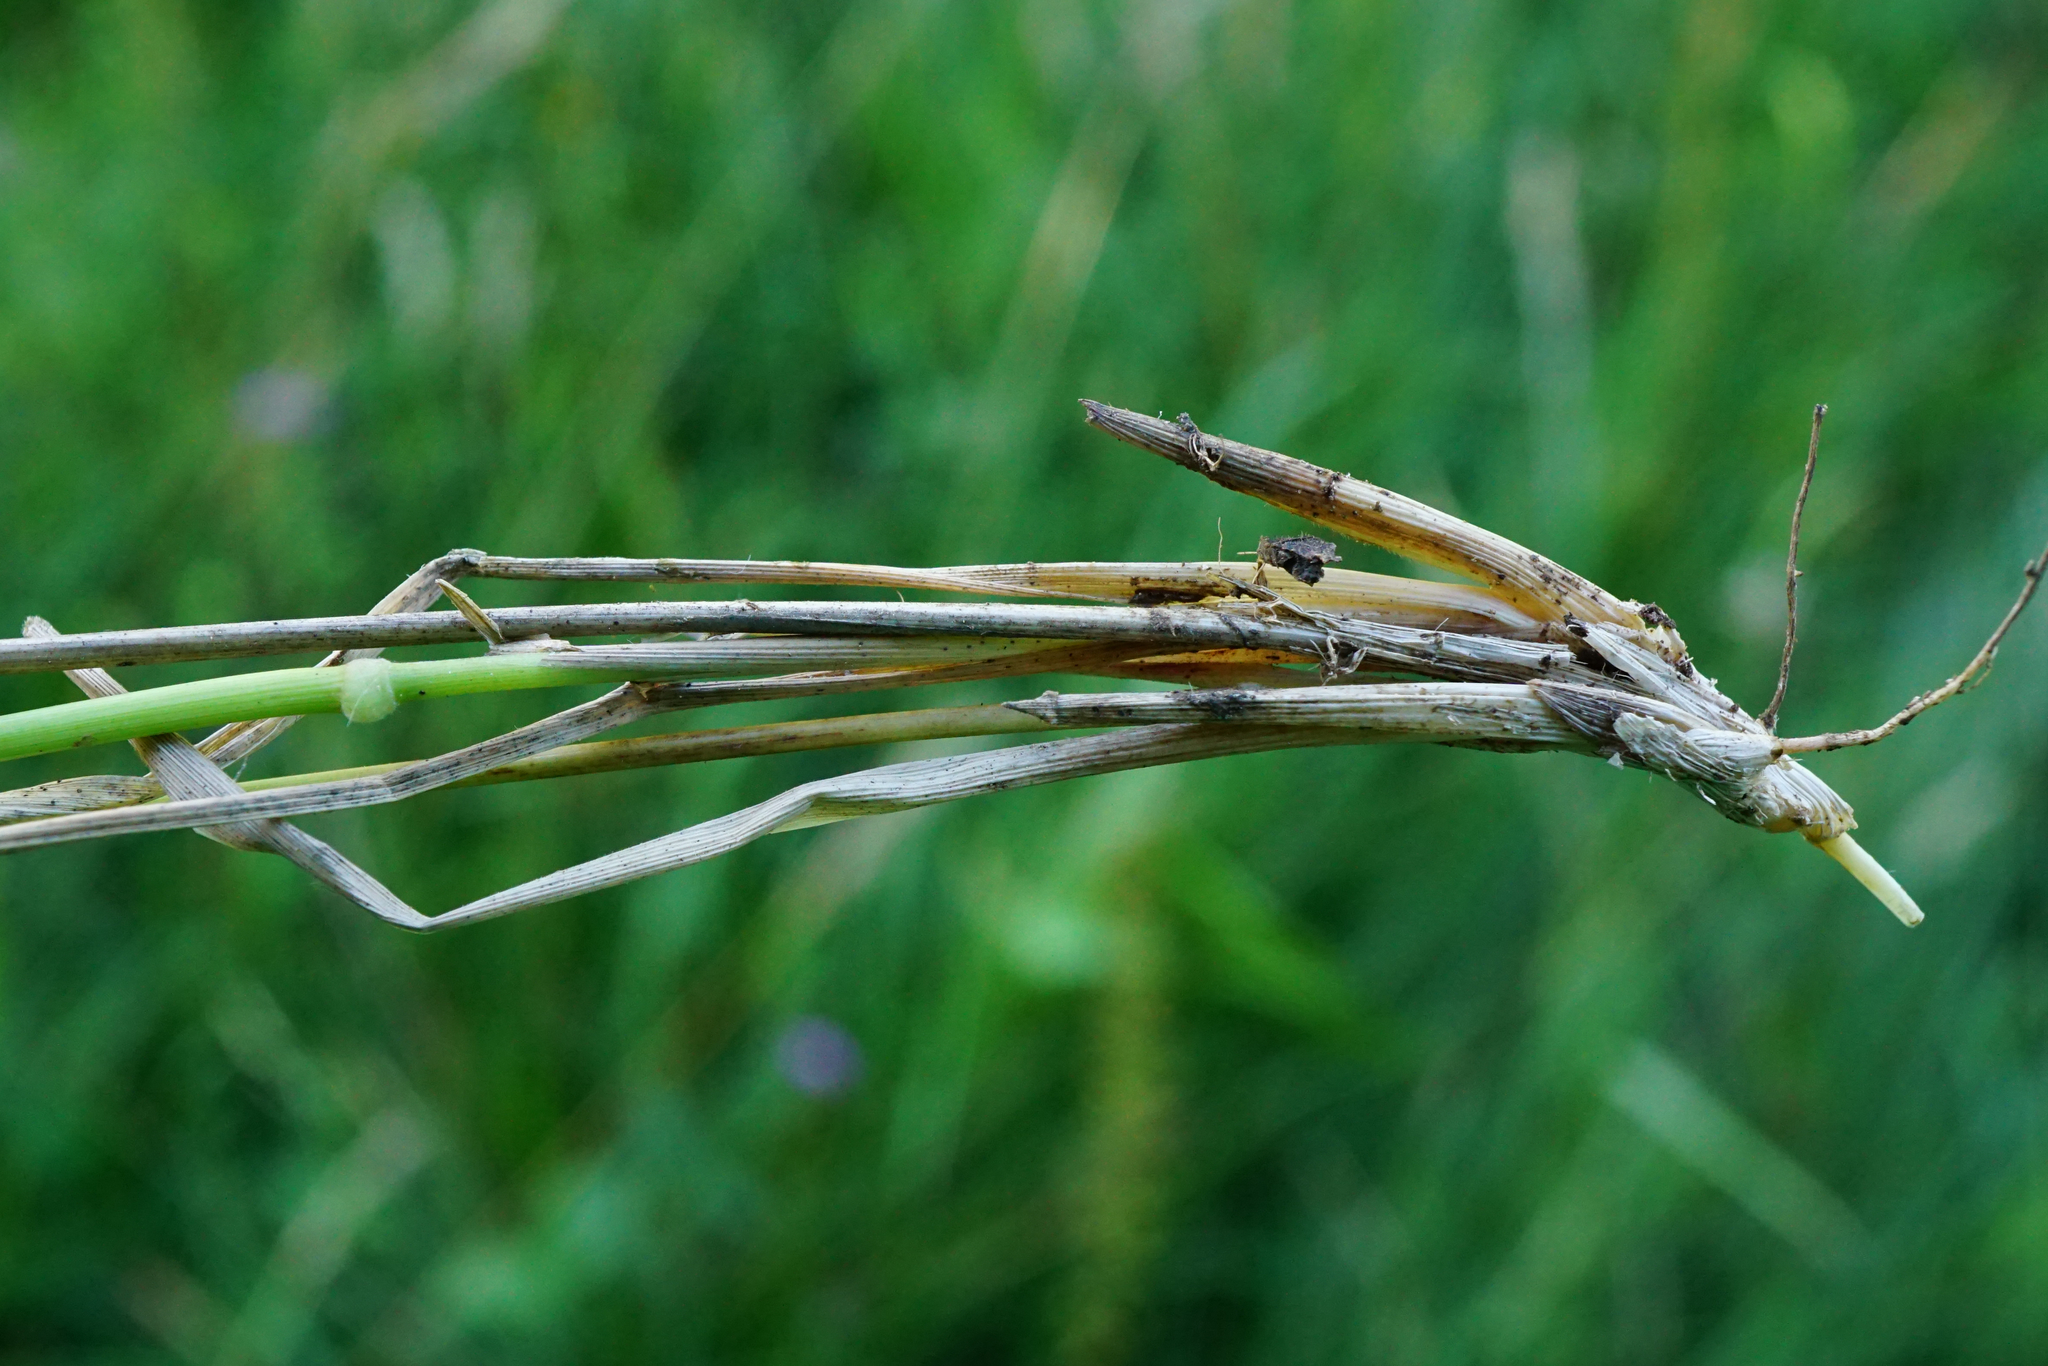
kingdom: Plantae
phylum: Tracheophyta
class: Liliopsida
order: Poales
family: Poaceae
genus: Brachypodium
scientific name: Brachypodium pinnatum
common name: Tor grass
